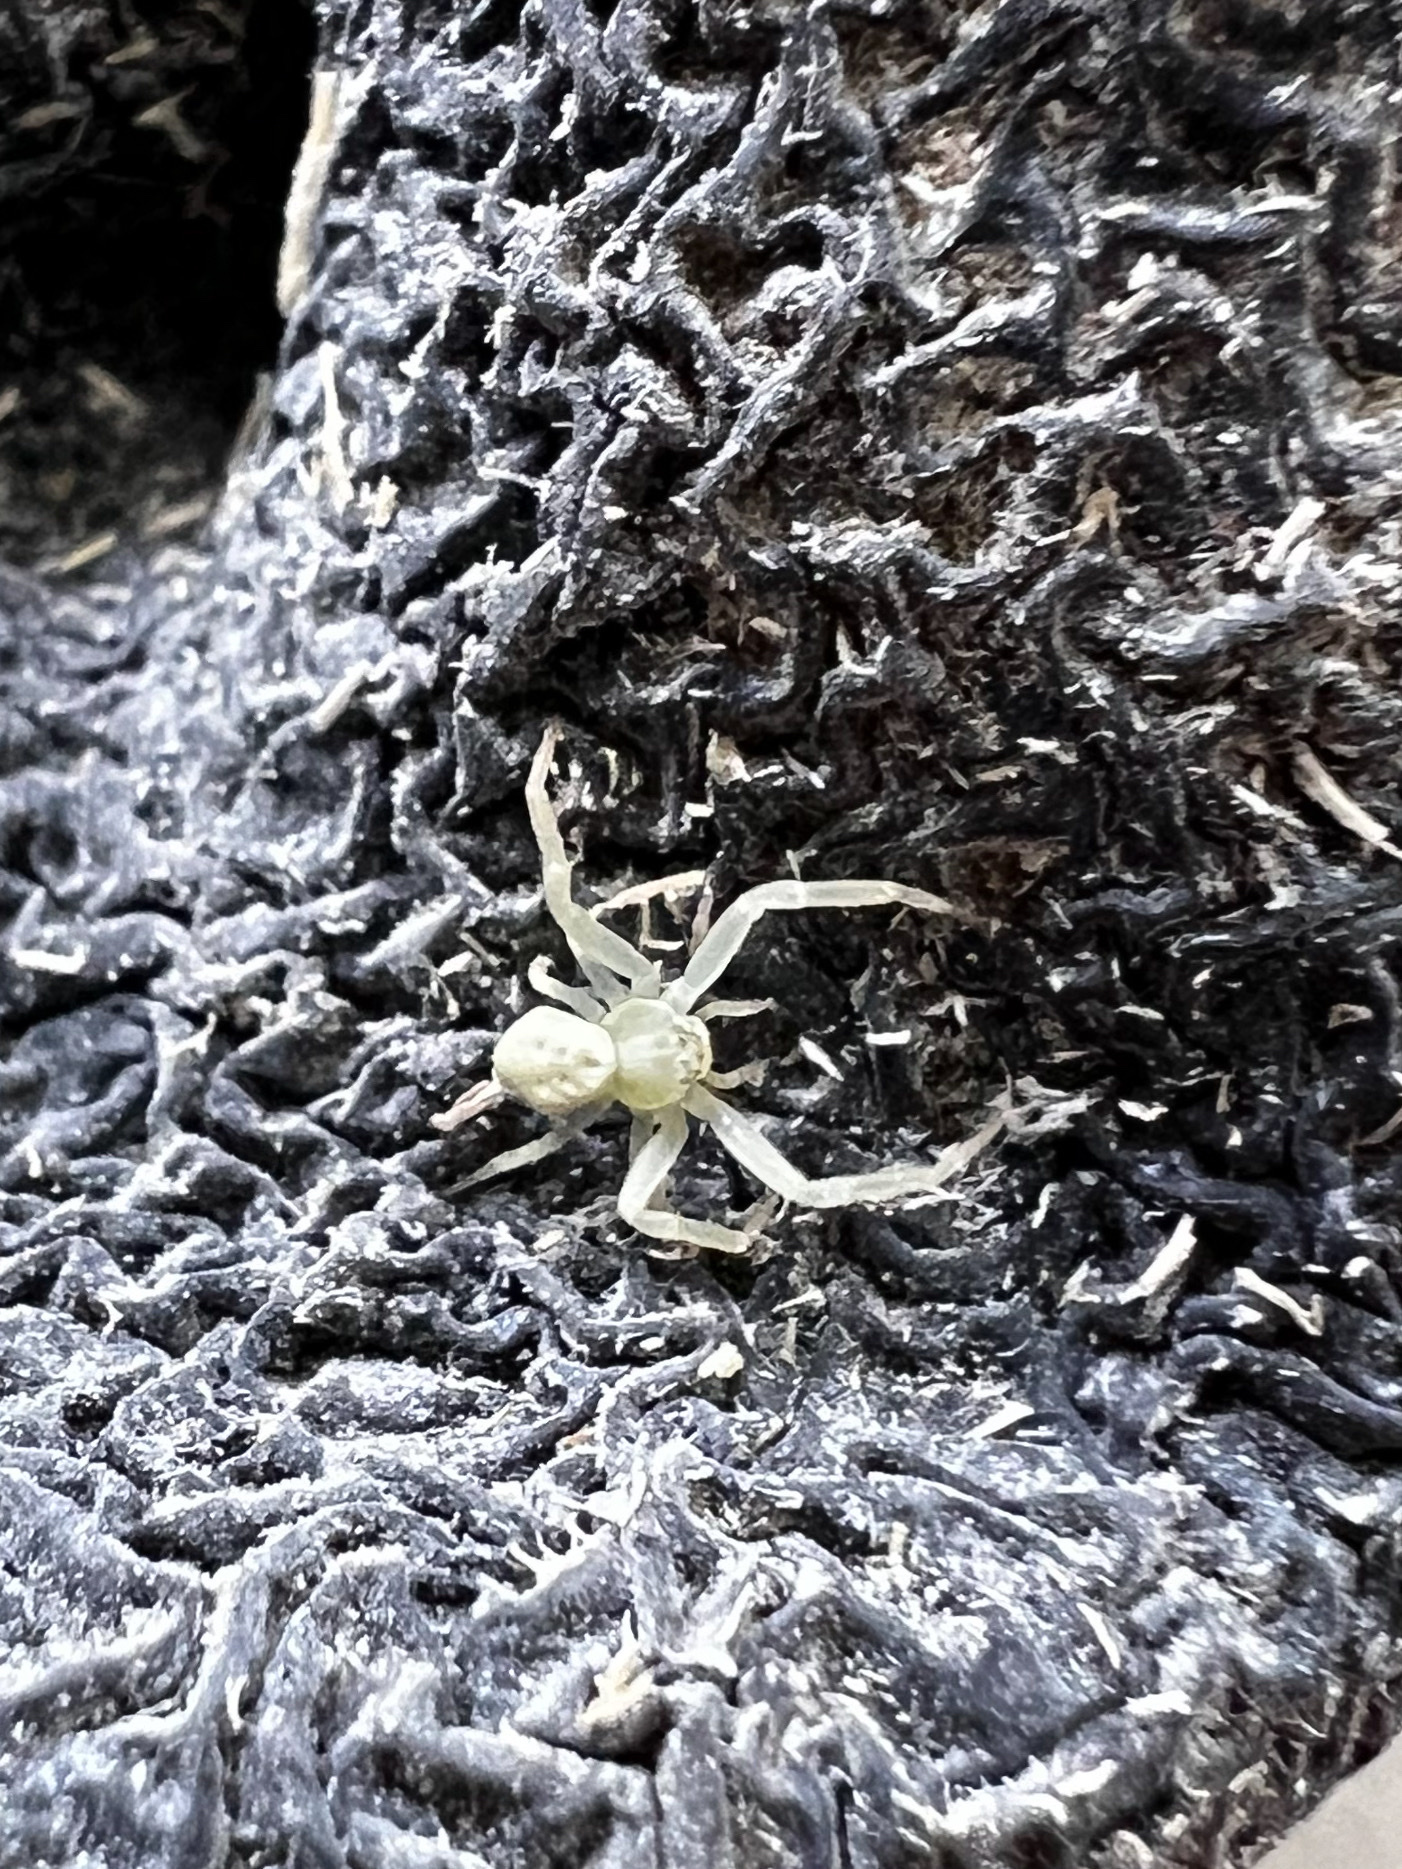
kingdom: Animalia
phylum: Arthropoda
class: Arachnida
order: Araneae
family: Thomisidae
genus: Misumena
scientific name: Misumena vatia
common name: Goldenrod crab spider
